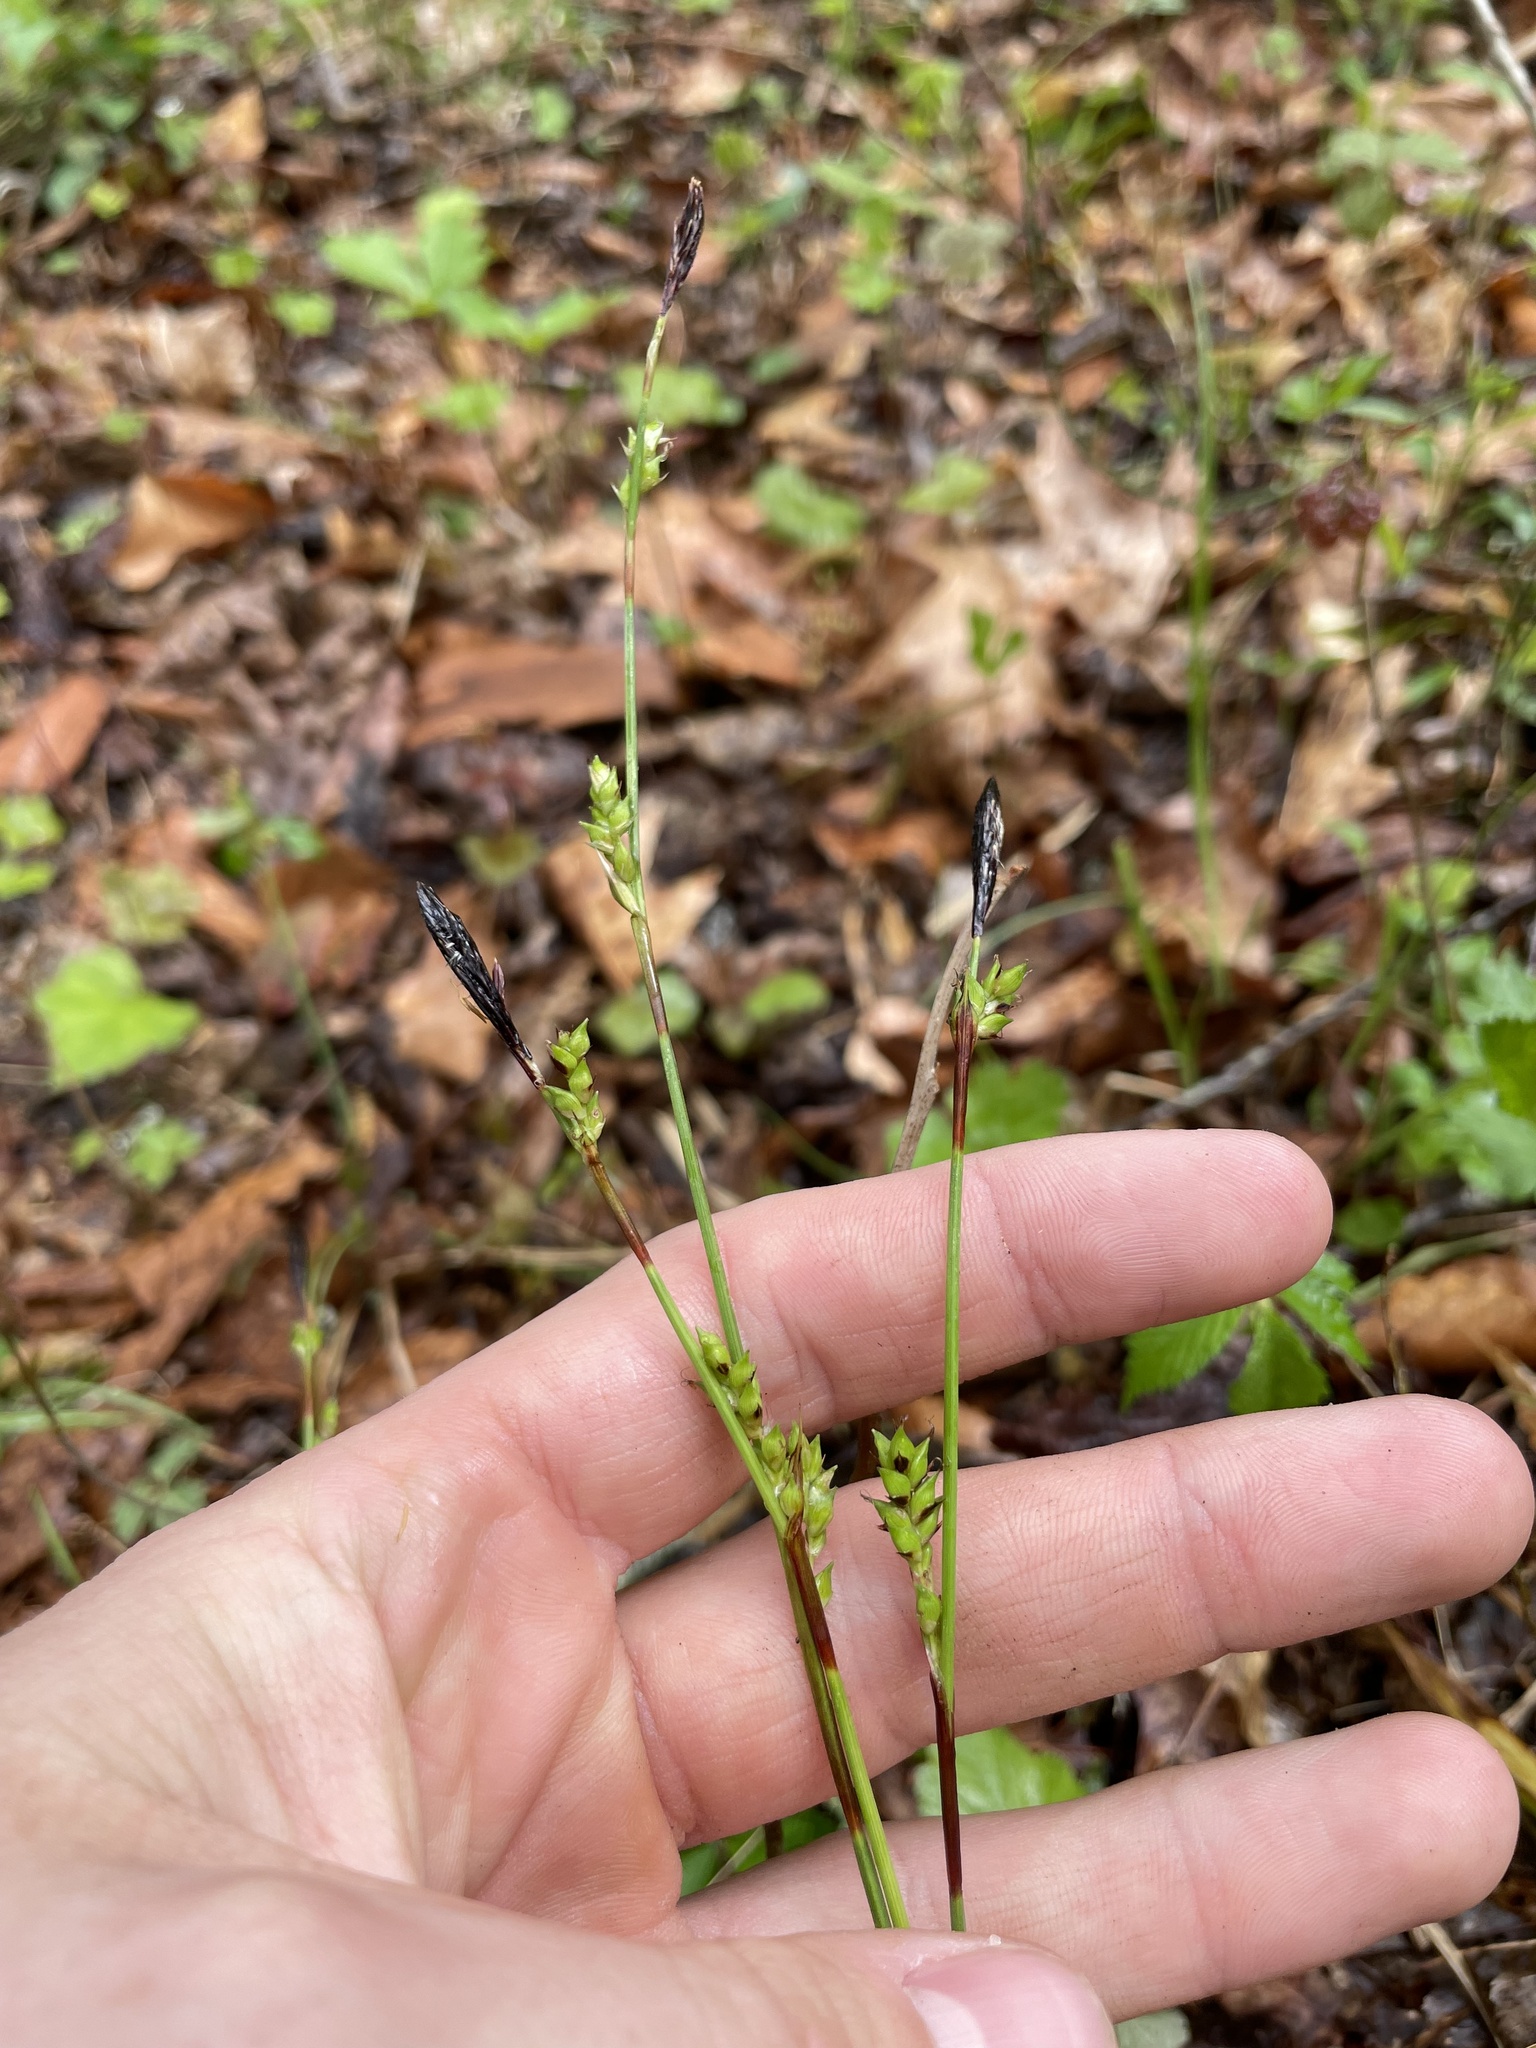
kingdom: Plantae
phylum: Tracheophyta
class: Liliopsida
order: Poales
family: Cyperaceae
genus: Carex
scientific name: Carex plantaginea
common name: Plantain-leaved sedge
